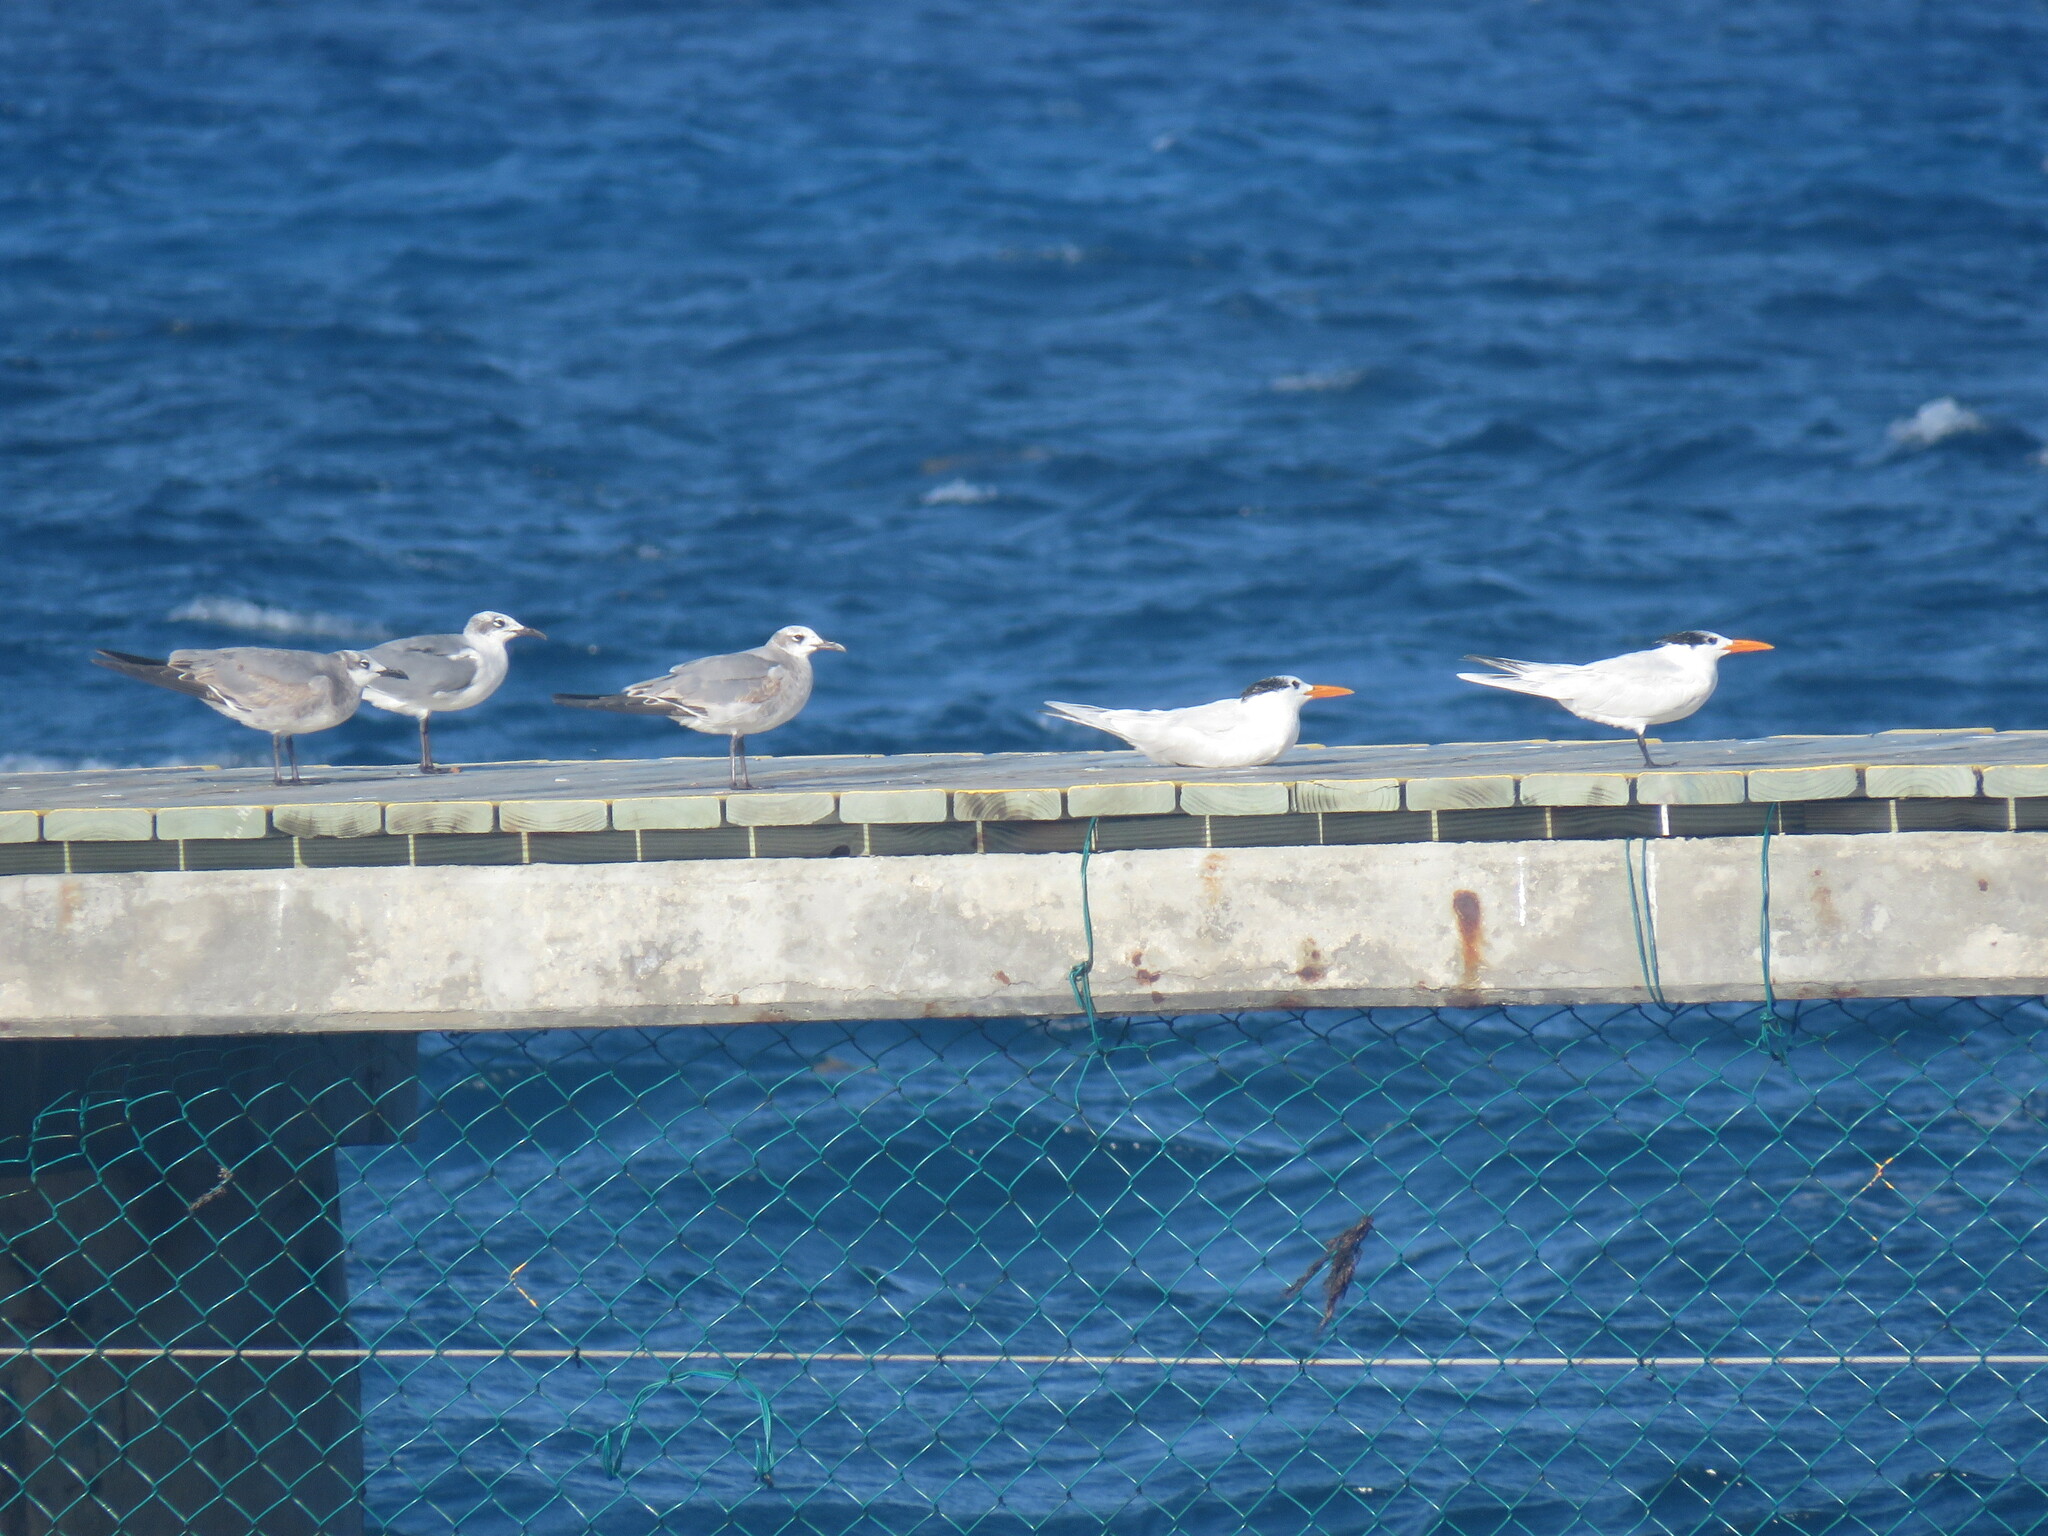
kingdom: Animalia
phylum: Chordata
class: Aves
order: Charadriiformes
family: Laridae
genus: Thalasseus
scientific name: Thalasseus maximus
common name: Royal tern
